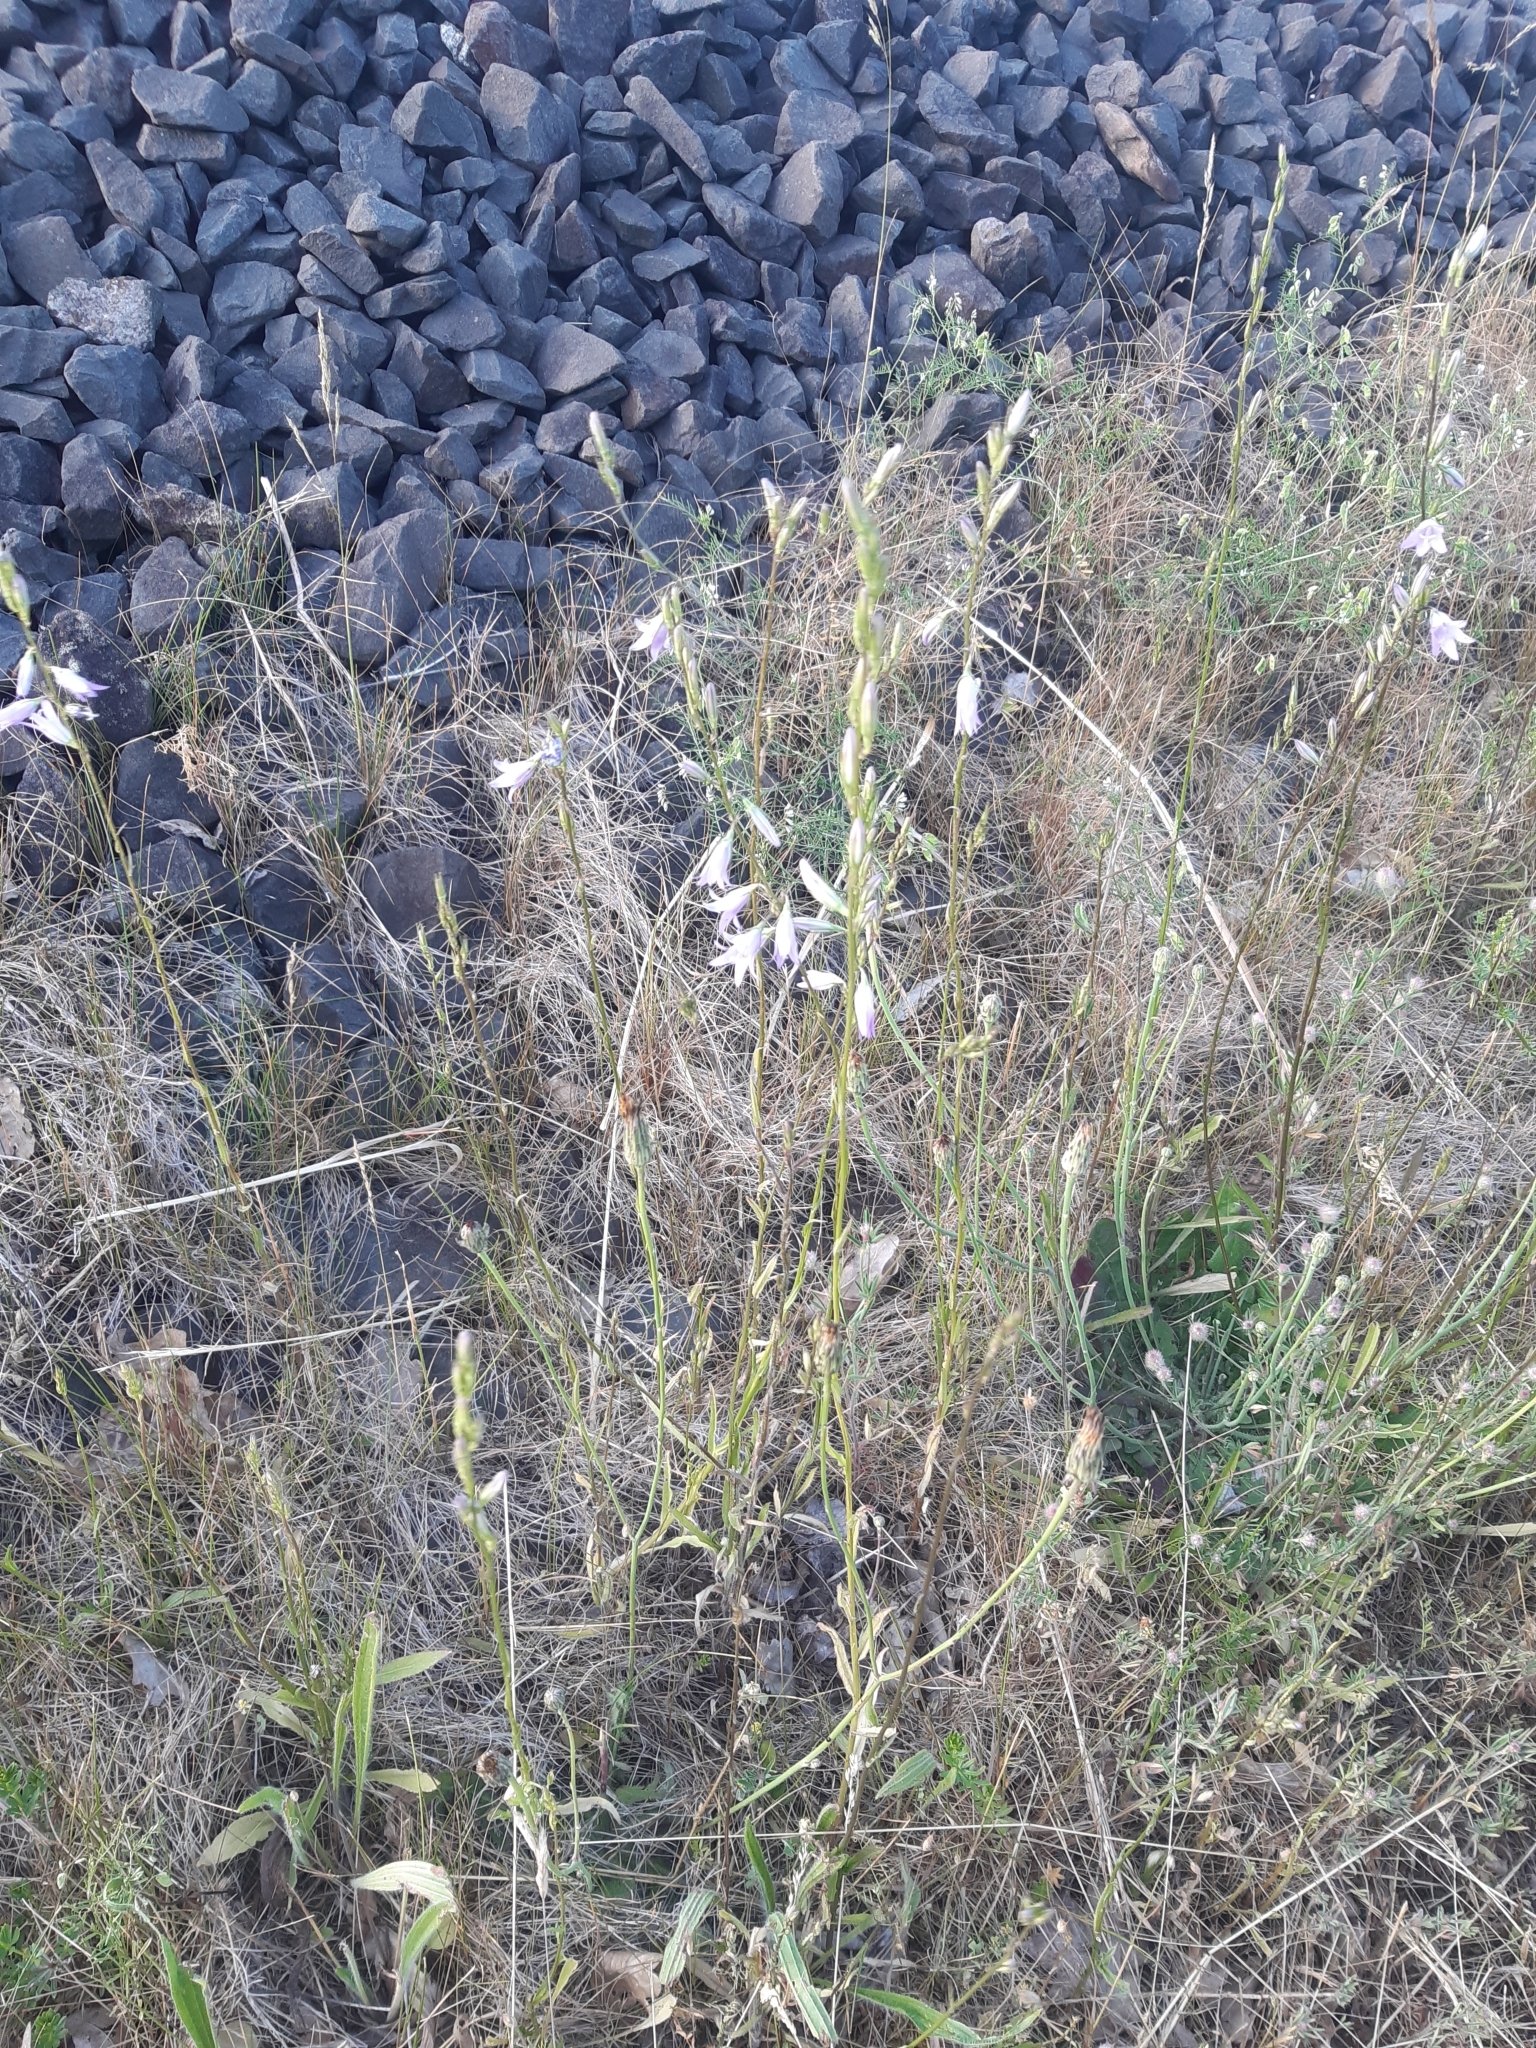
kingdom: Plantae
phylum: Tracheophyta
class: Magnoliopsida
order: Asterales
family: Campanulaceae
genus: Campanula
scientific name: Campanula rapunculus
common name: Rampion bellflower
